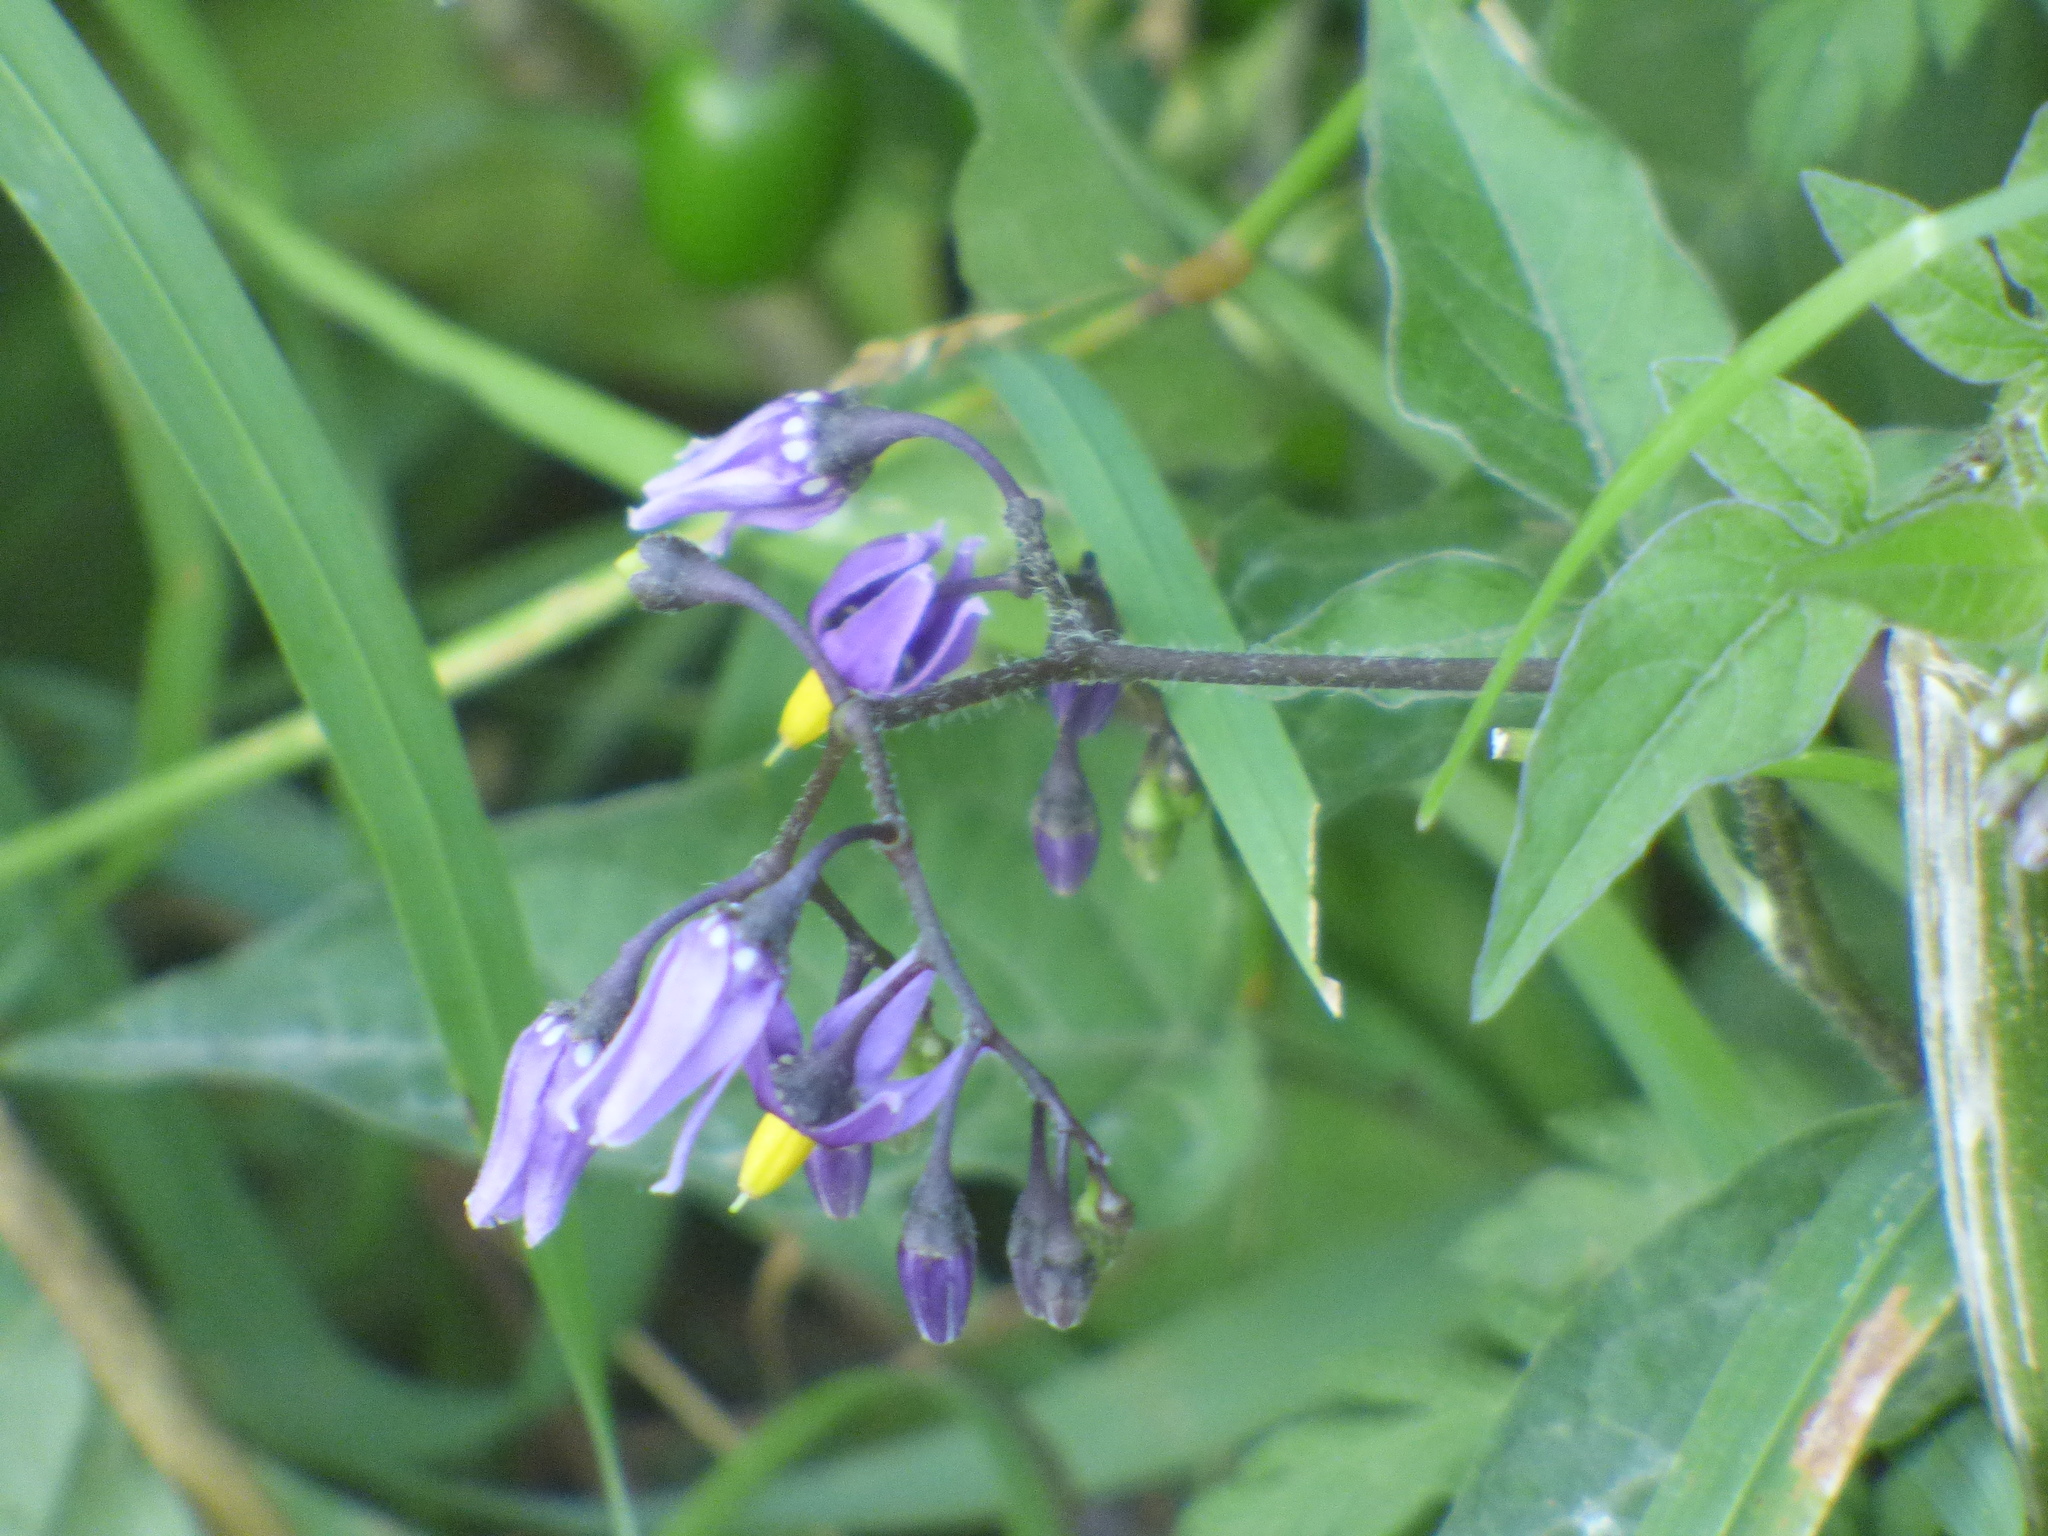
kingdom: Plantae
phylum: Tracheophyta
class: Magnoliopsida
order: Solanales
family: Solanaceae
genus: Solanum
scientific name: Solanum dulcamara
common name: Climbing nightshade
